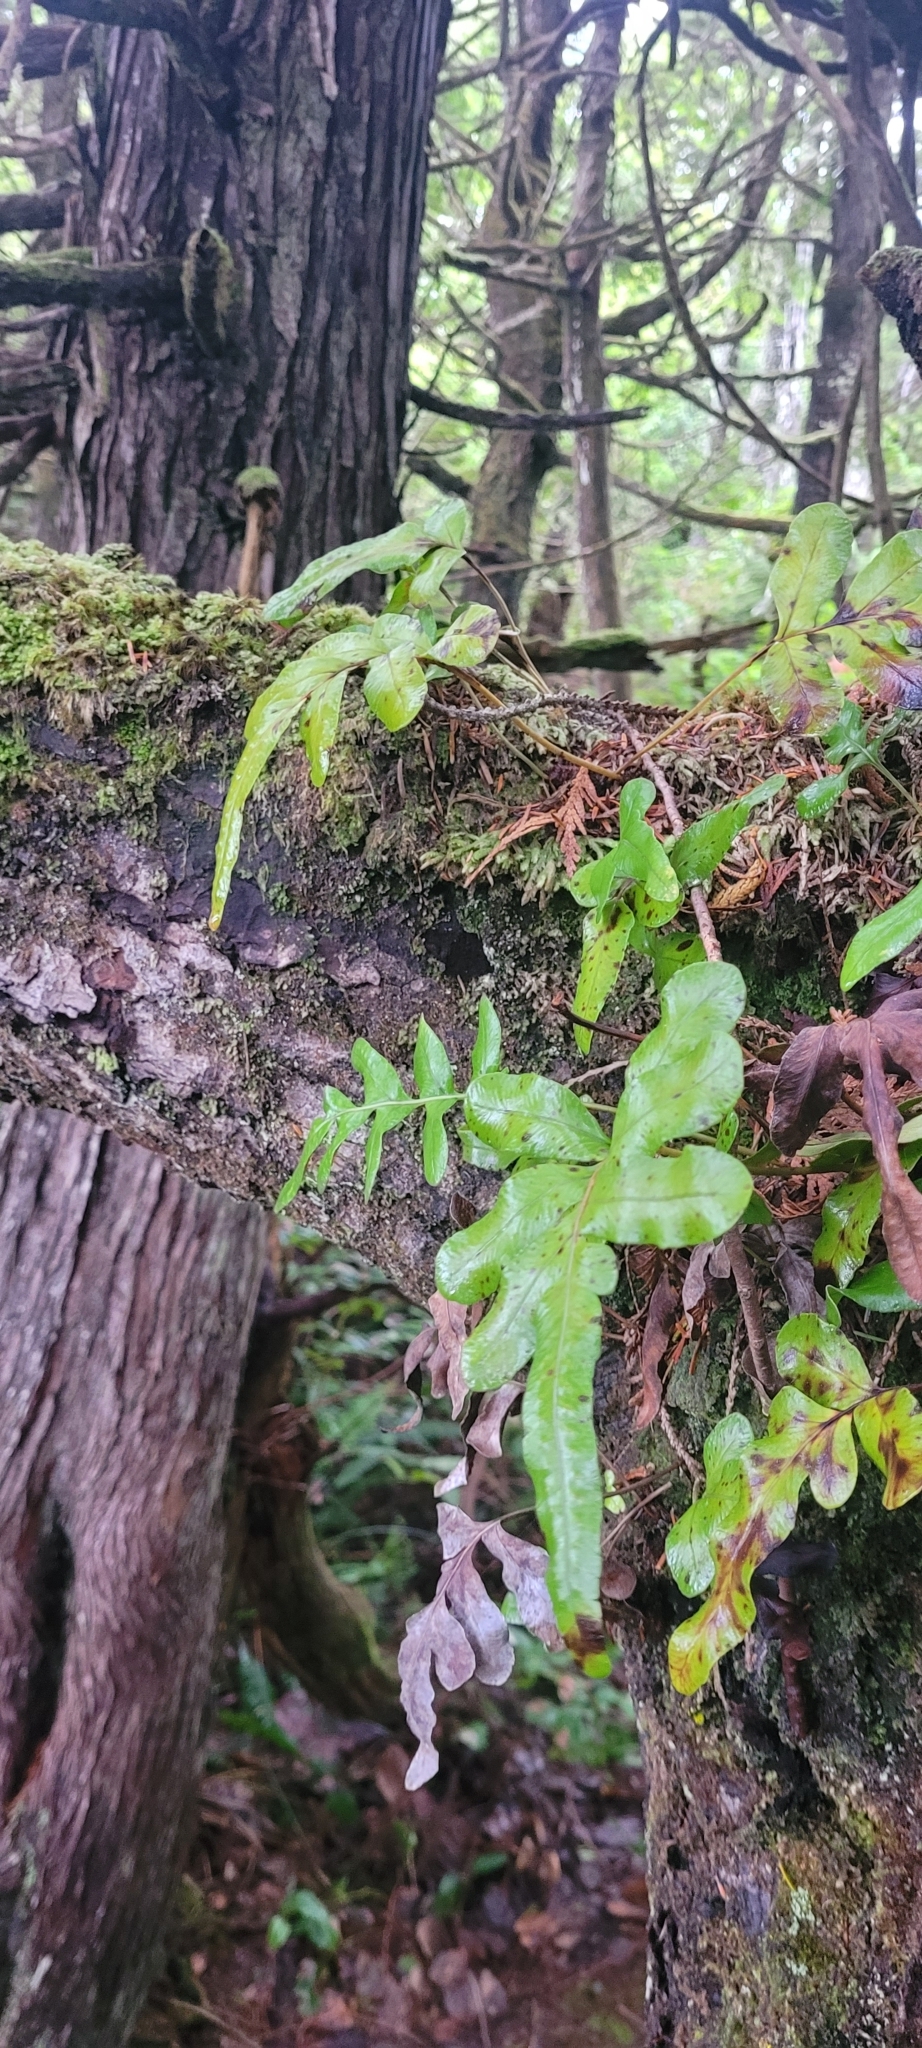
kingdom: Plantae
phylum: Tracheophyta
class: Polypodiopsida
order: Polypodiales
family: Polypodiaceae
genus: Polypodium
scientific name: Polypodium scouleri
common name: Scouler's polypody
